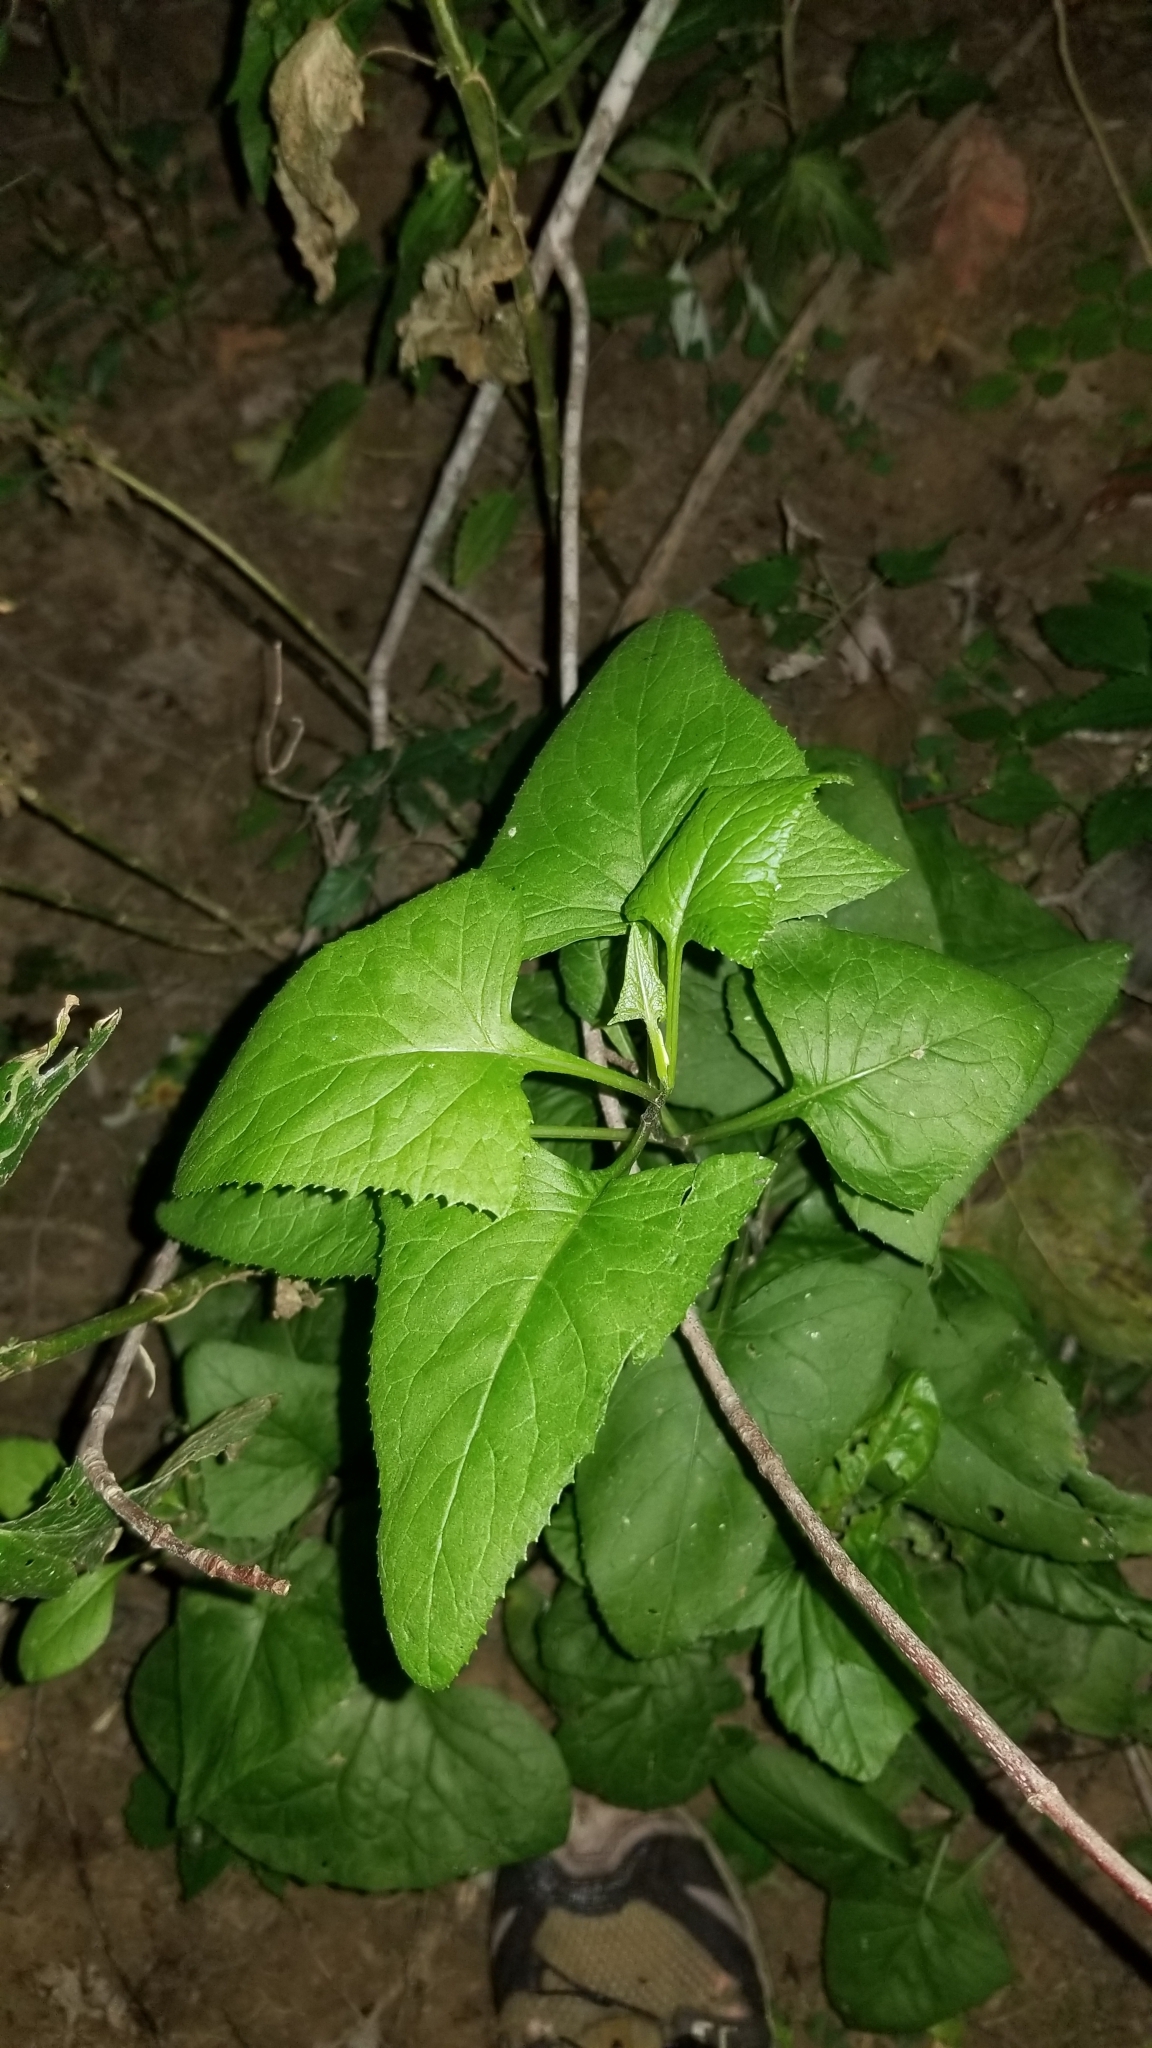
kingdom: Plantae
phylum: Tracheophyta
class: Magnoliopsida
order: Asterales
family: Asteraceae
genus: Hasteola
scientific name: Hasteola suaveolens
